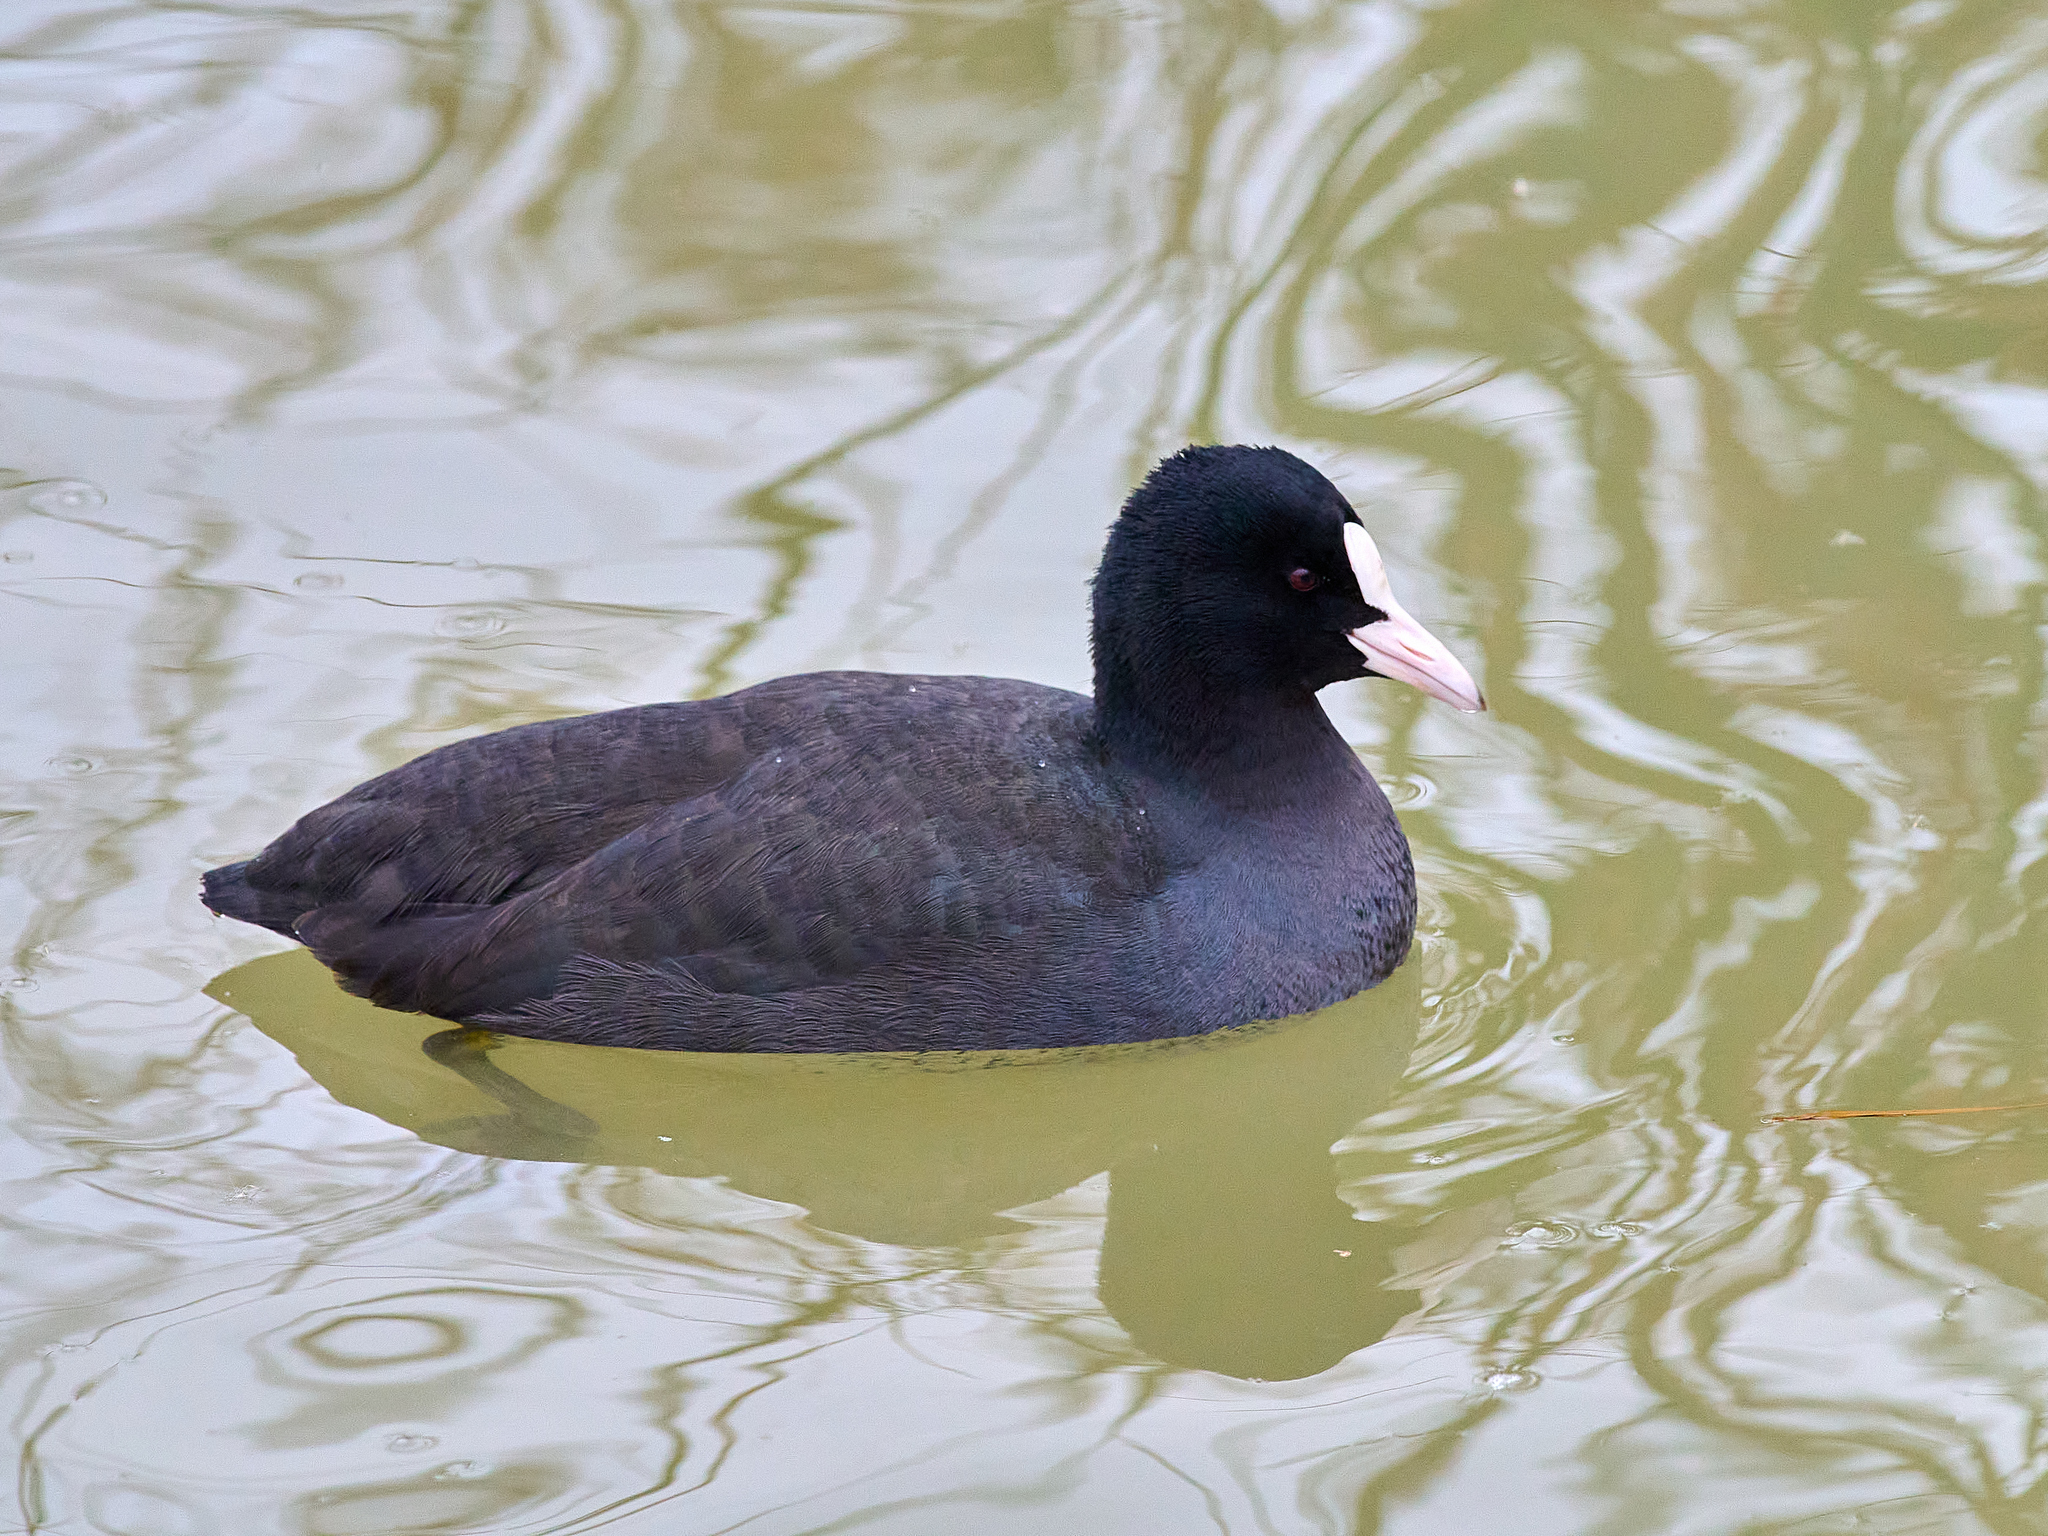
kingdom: Animalia
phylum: Chordata
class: Aves
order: Gruiformes
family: Rallidae
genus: Fulica
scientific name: Fulica atra
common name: Eurasian coot
